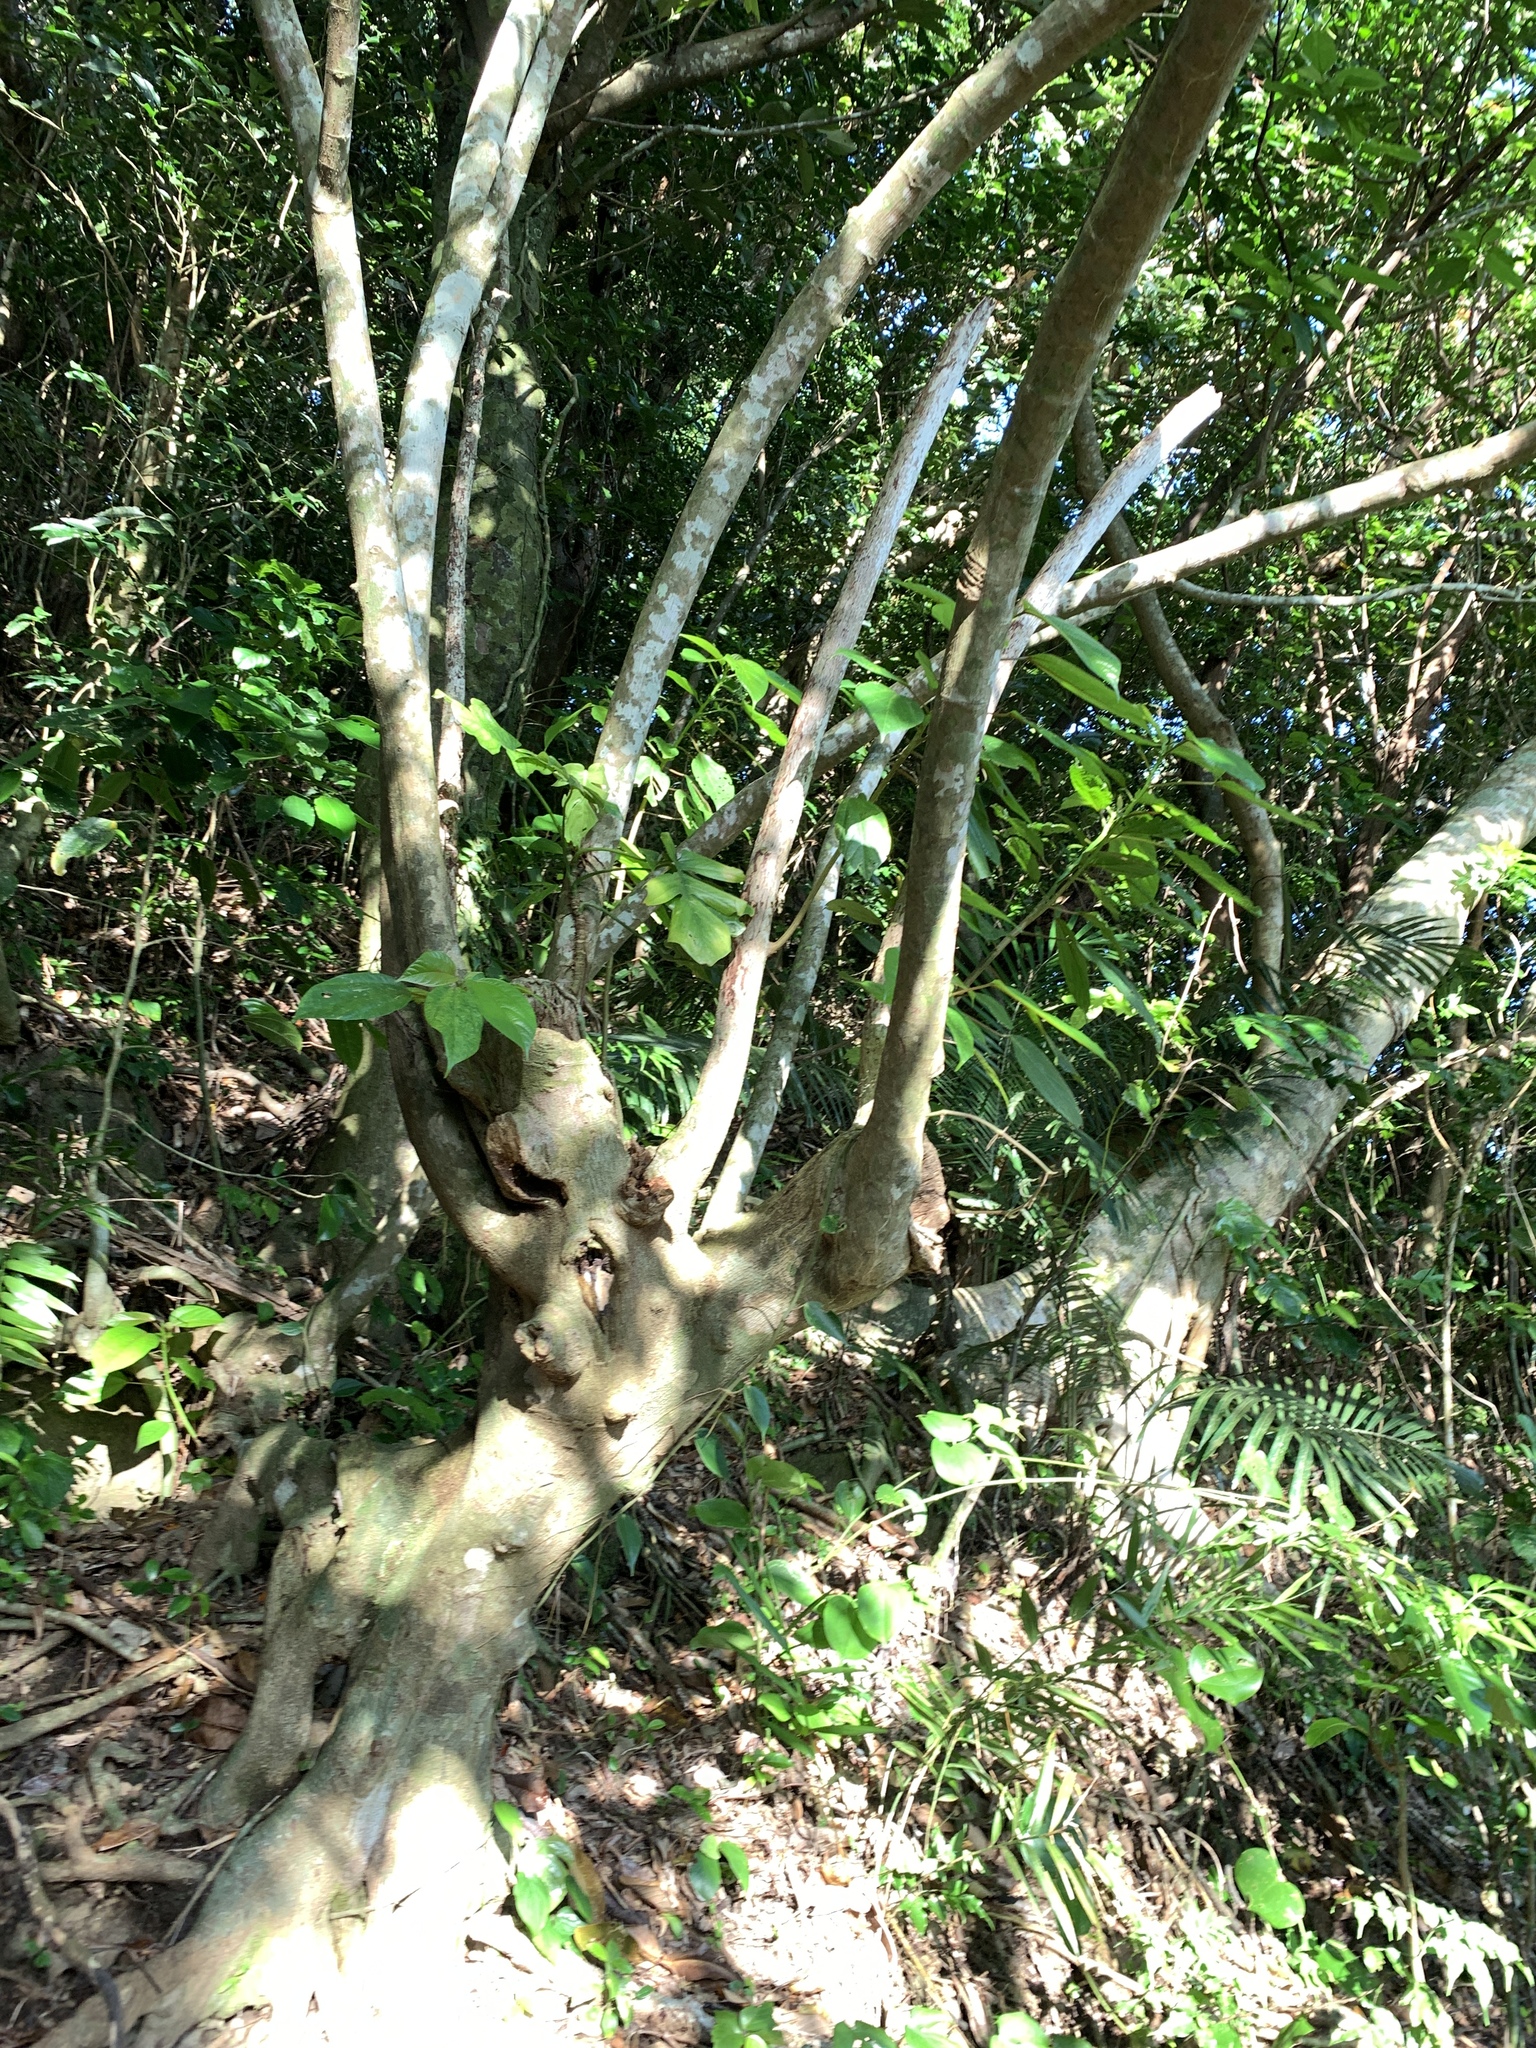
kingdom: Plantae
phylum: Tracheophyta
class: Magnoliopsida
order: Rosales
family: Urticaceae
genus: Oreocnide
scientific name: Oreocnide trinervis
